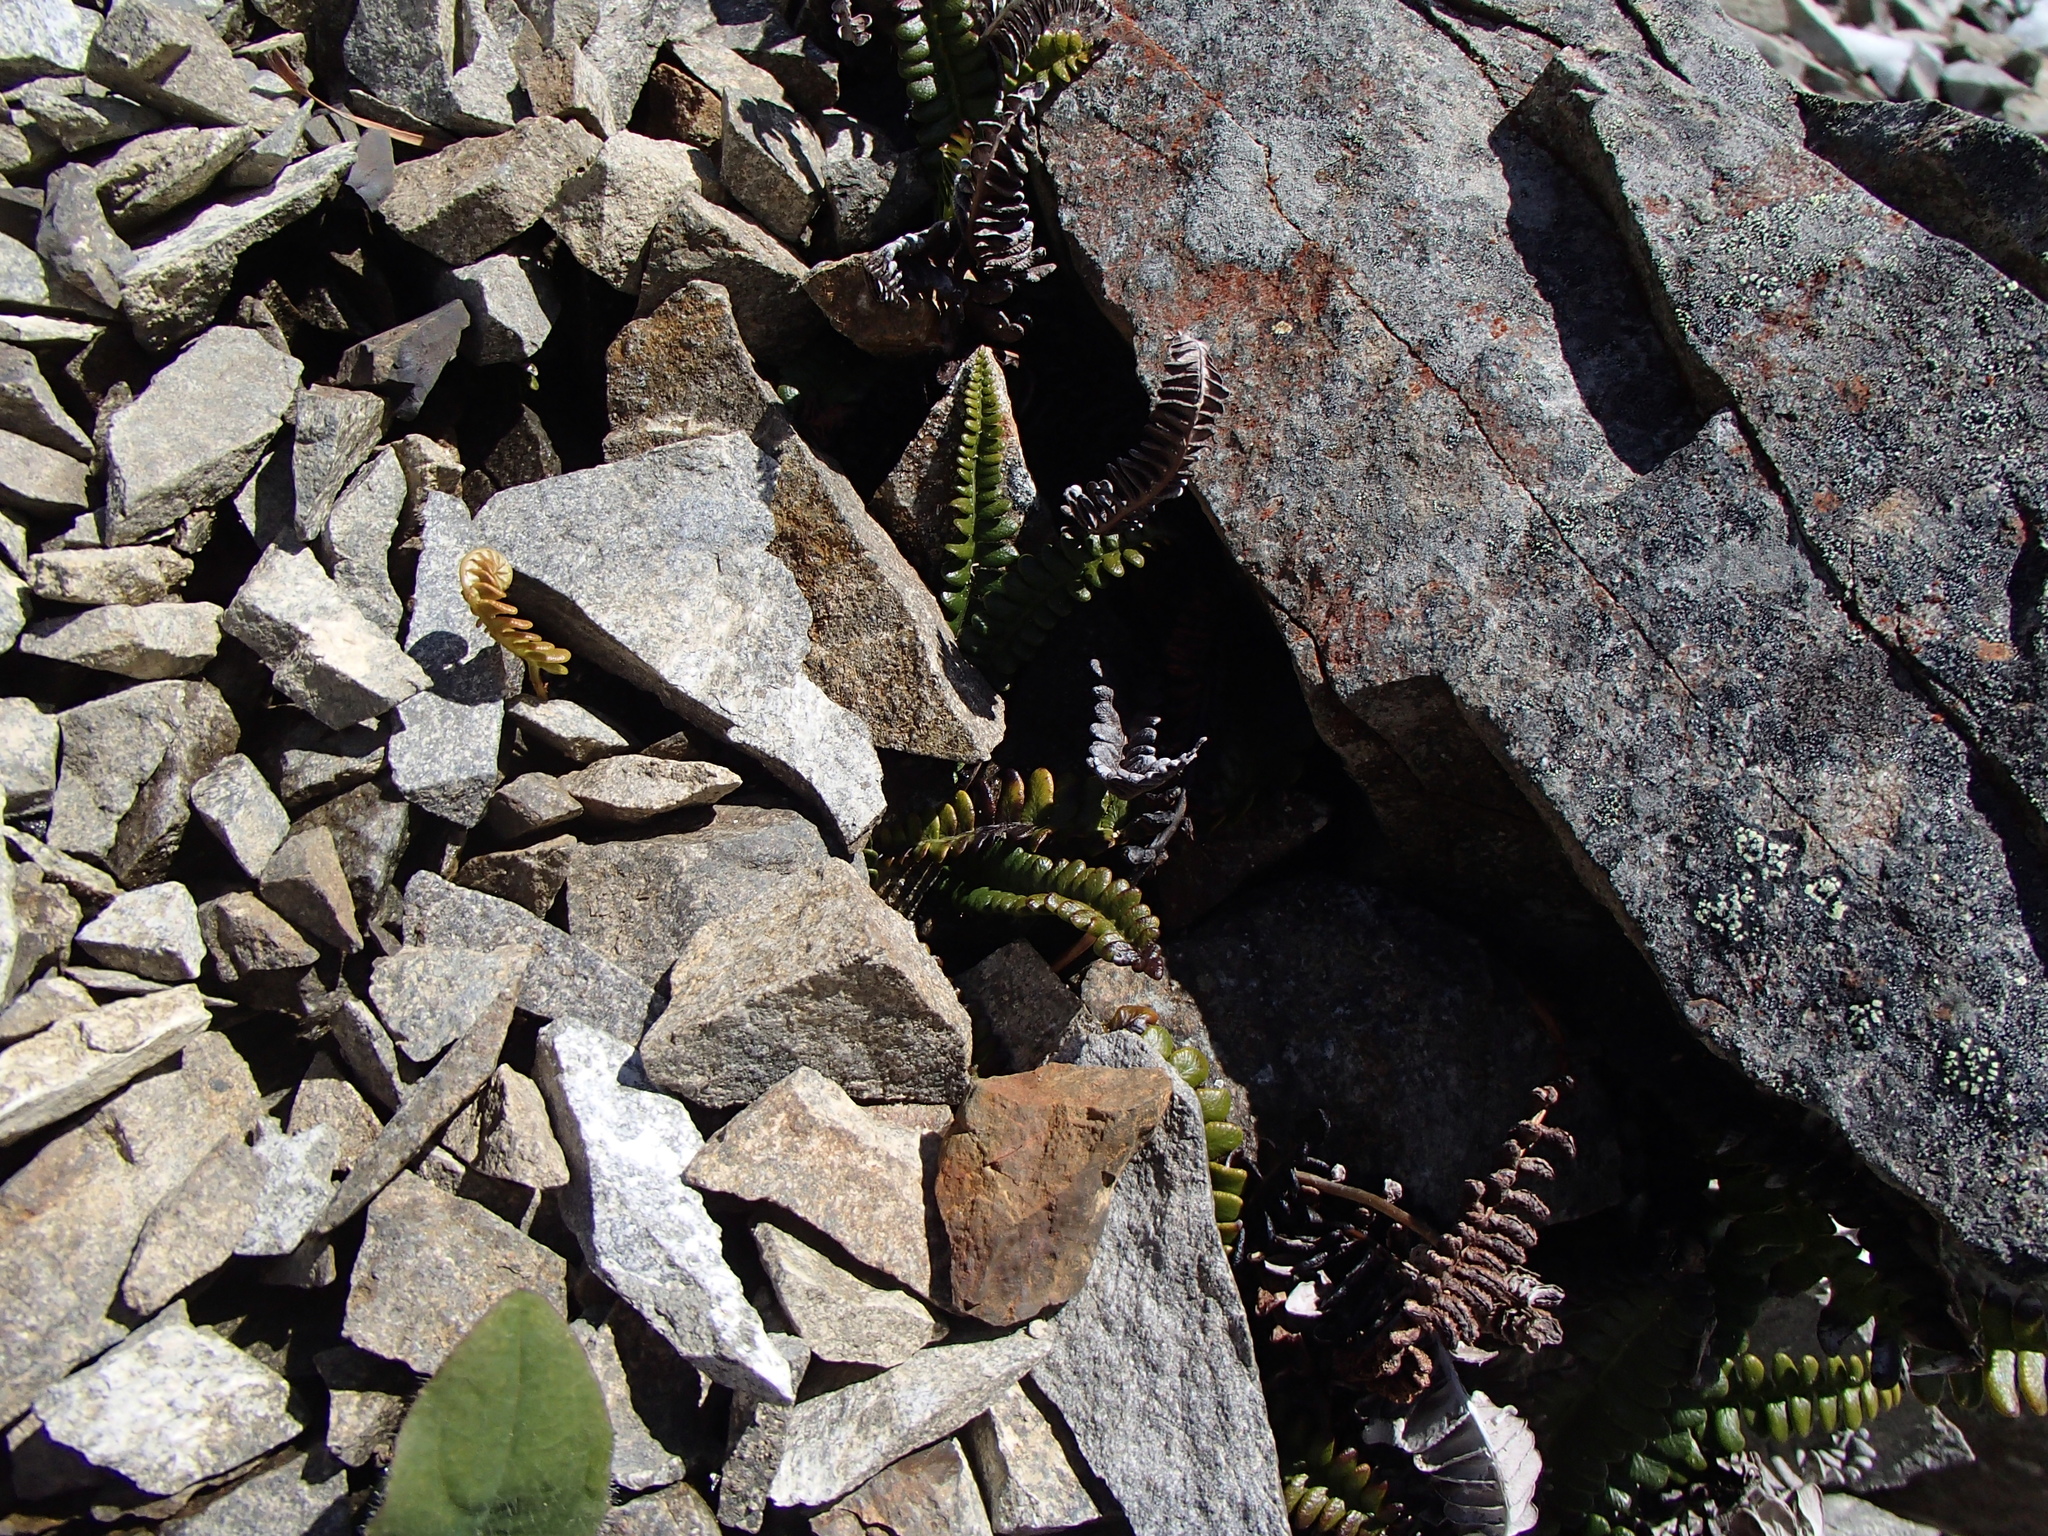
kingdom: Plantae
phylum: Tracheophyta
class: Polypodiopsida
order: Polypodiales
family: Blechnaceae
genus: Austroblechnum
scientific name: Austroblechnum penna-marina
